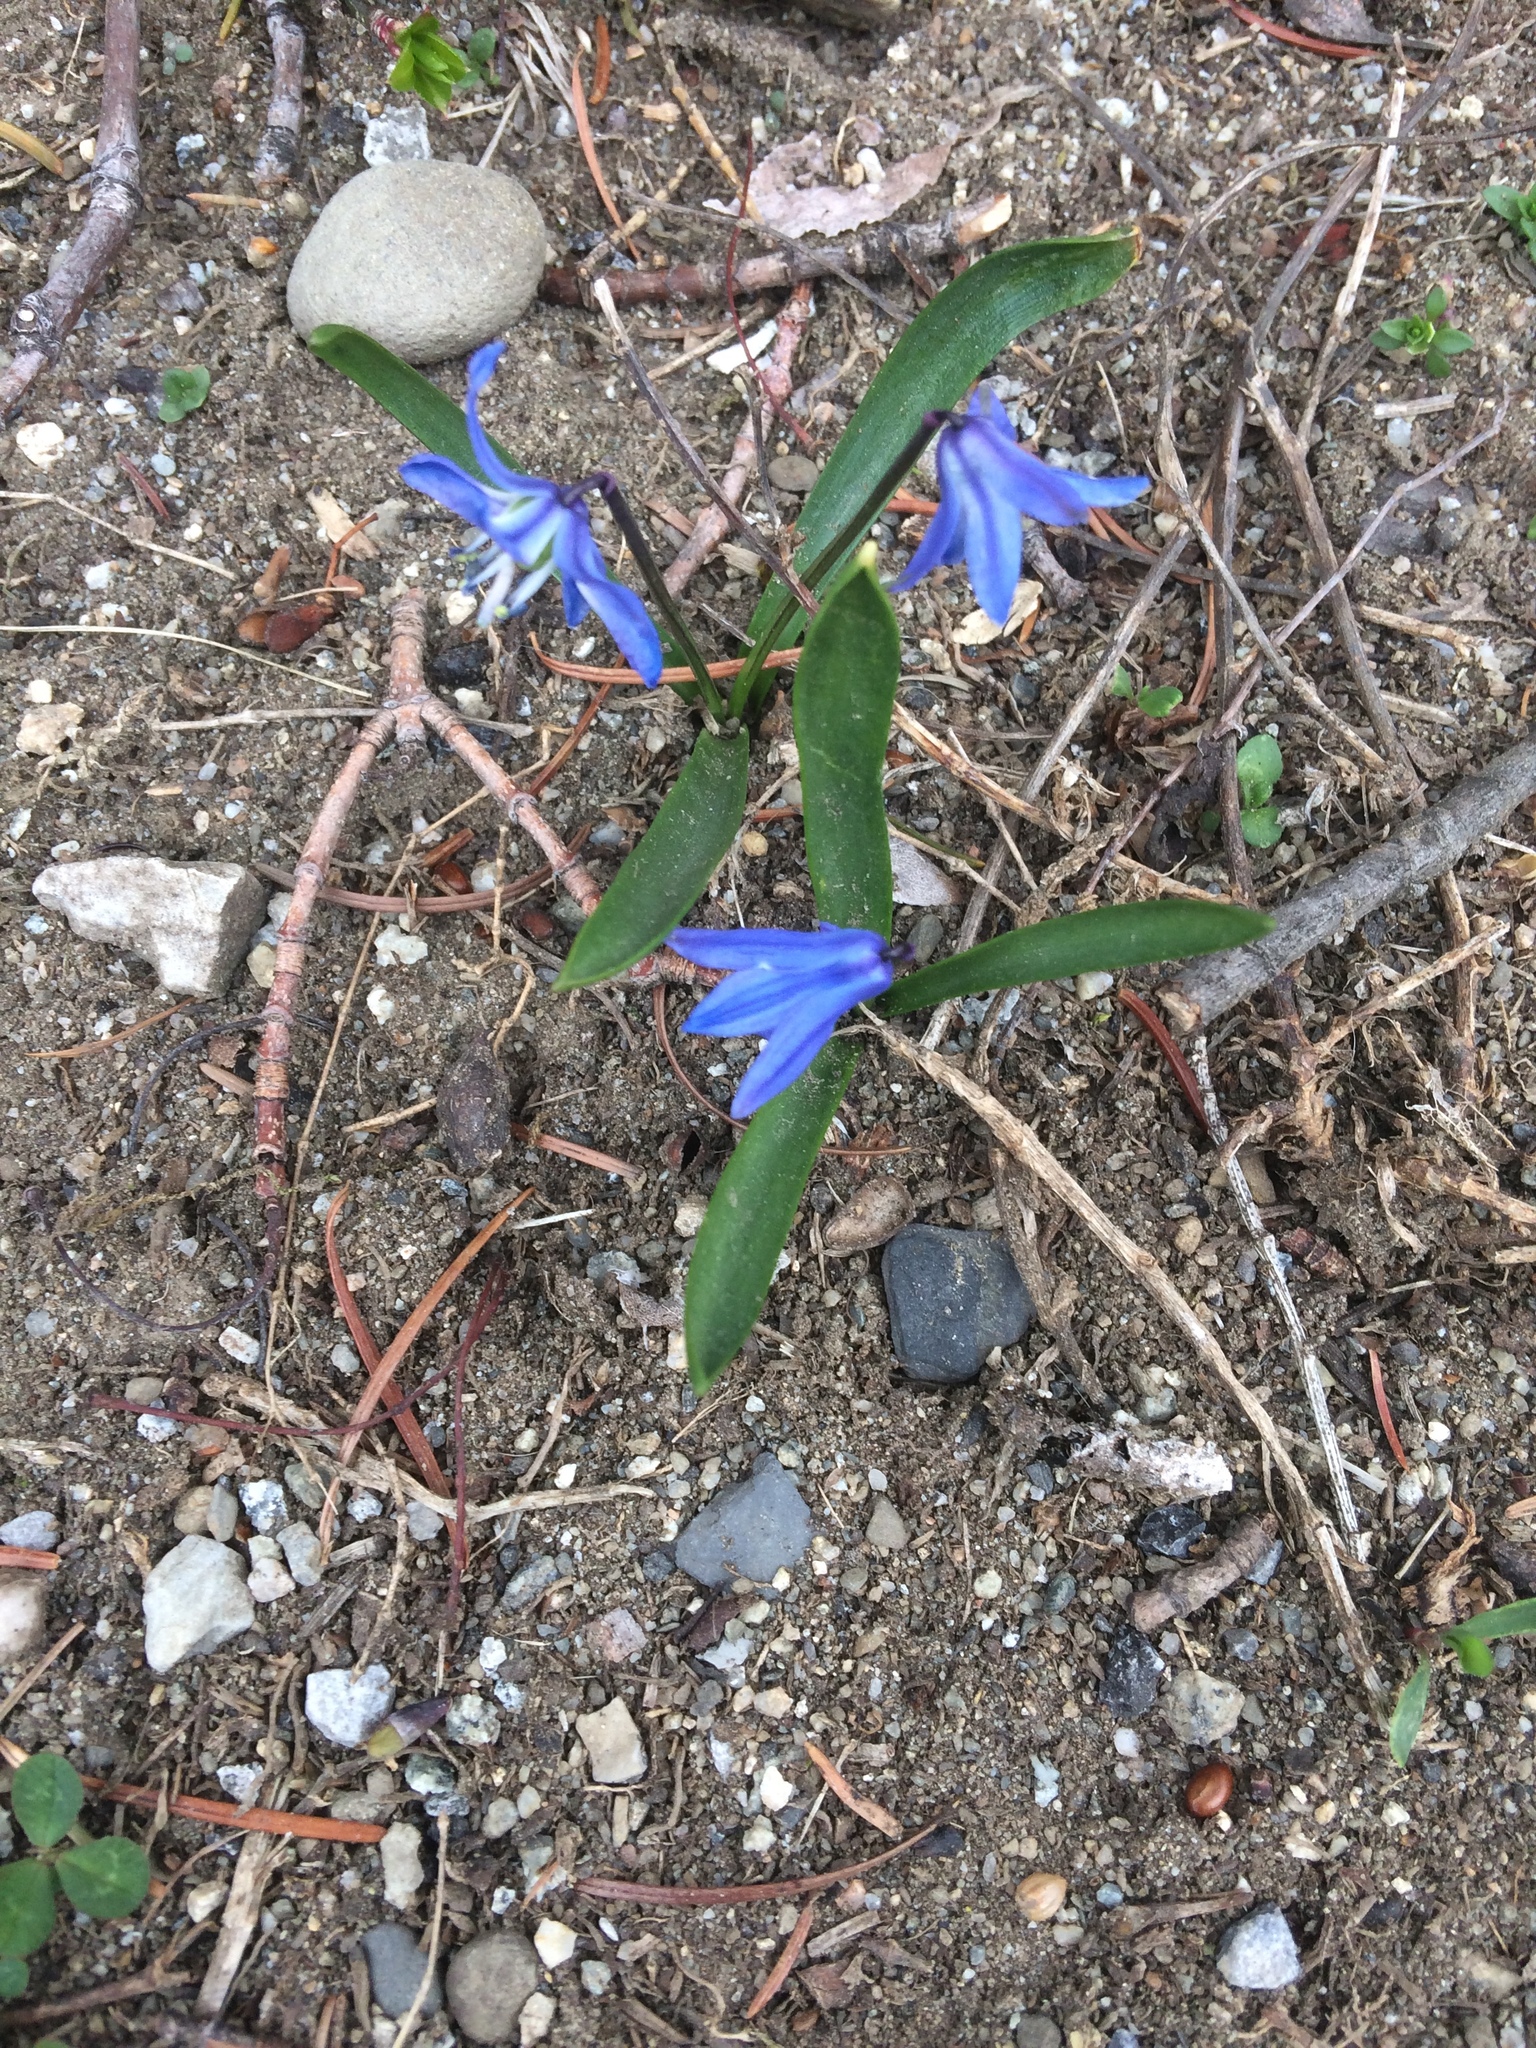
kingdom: Plantae
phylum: Tracheophyta
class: Liliopsida
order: Asparagales
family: Asparagaceae
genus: Scilla
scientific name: Scilla siberica
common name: Siberian squill
